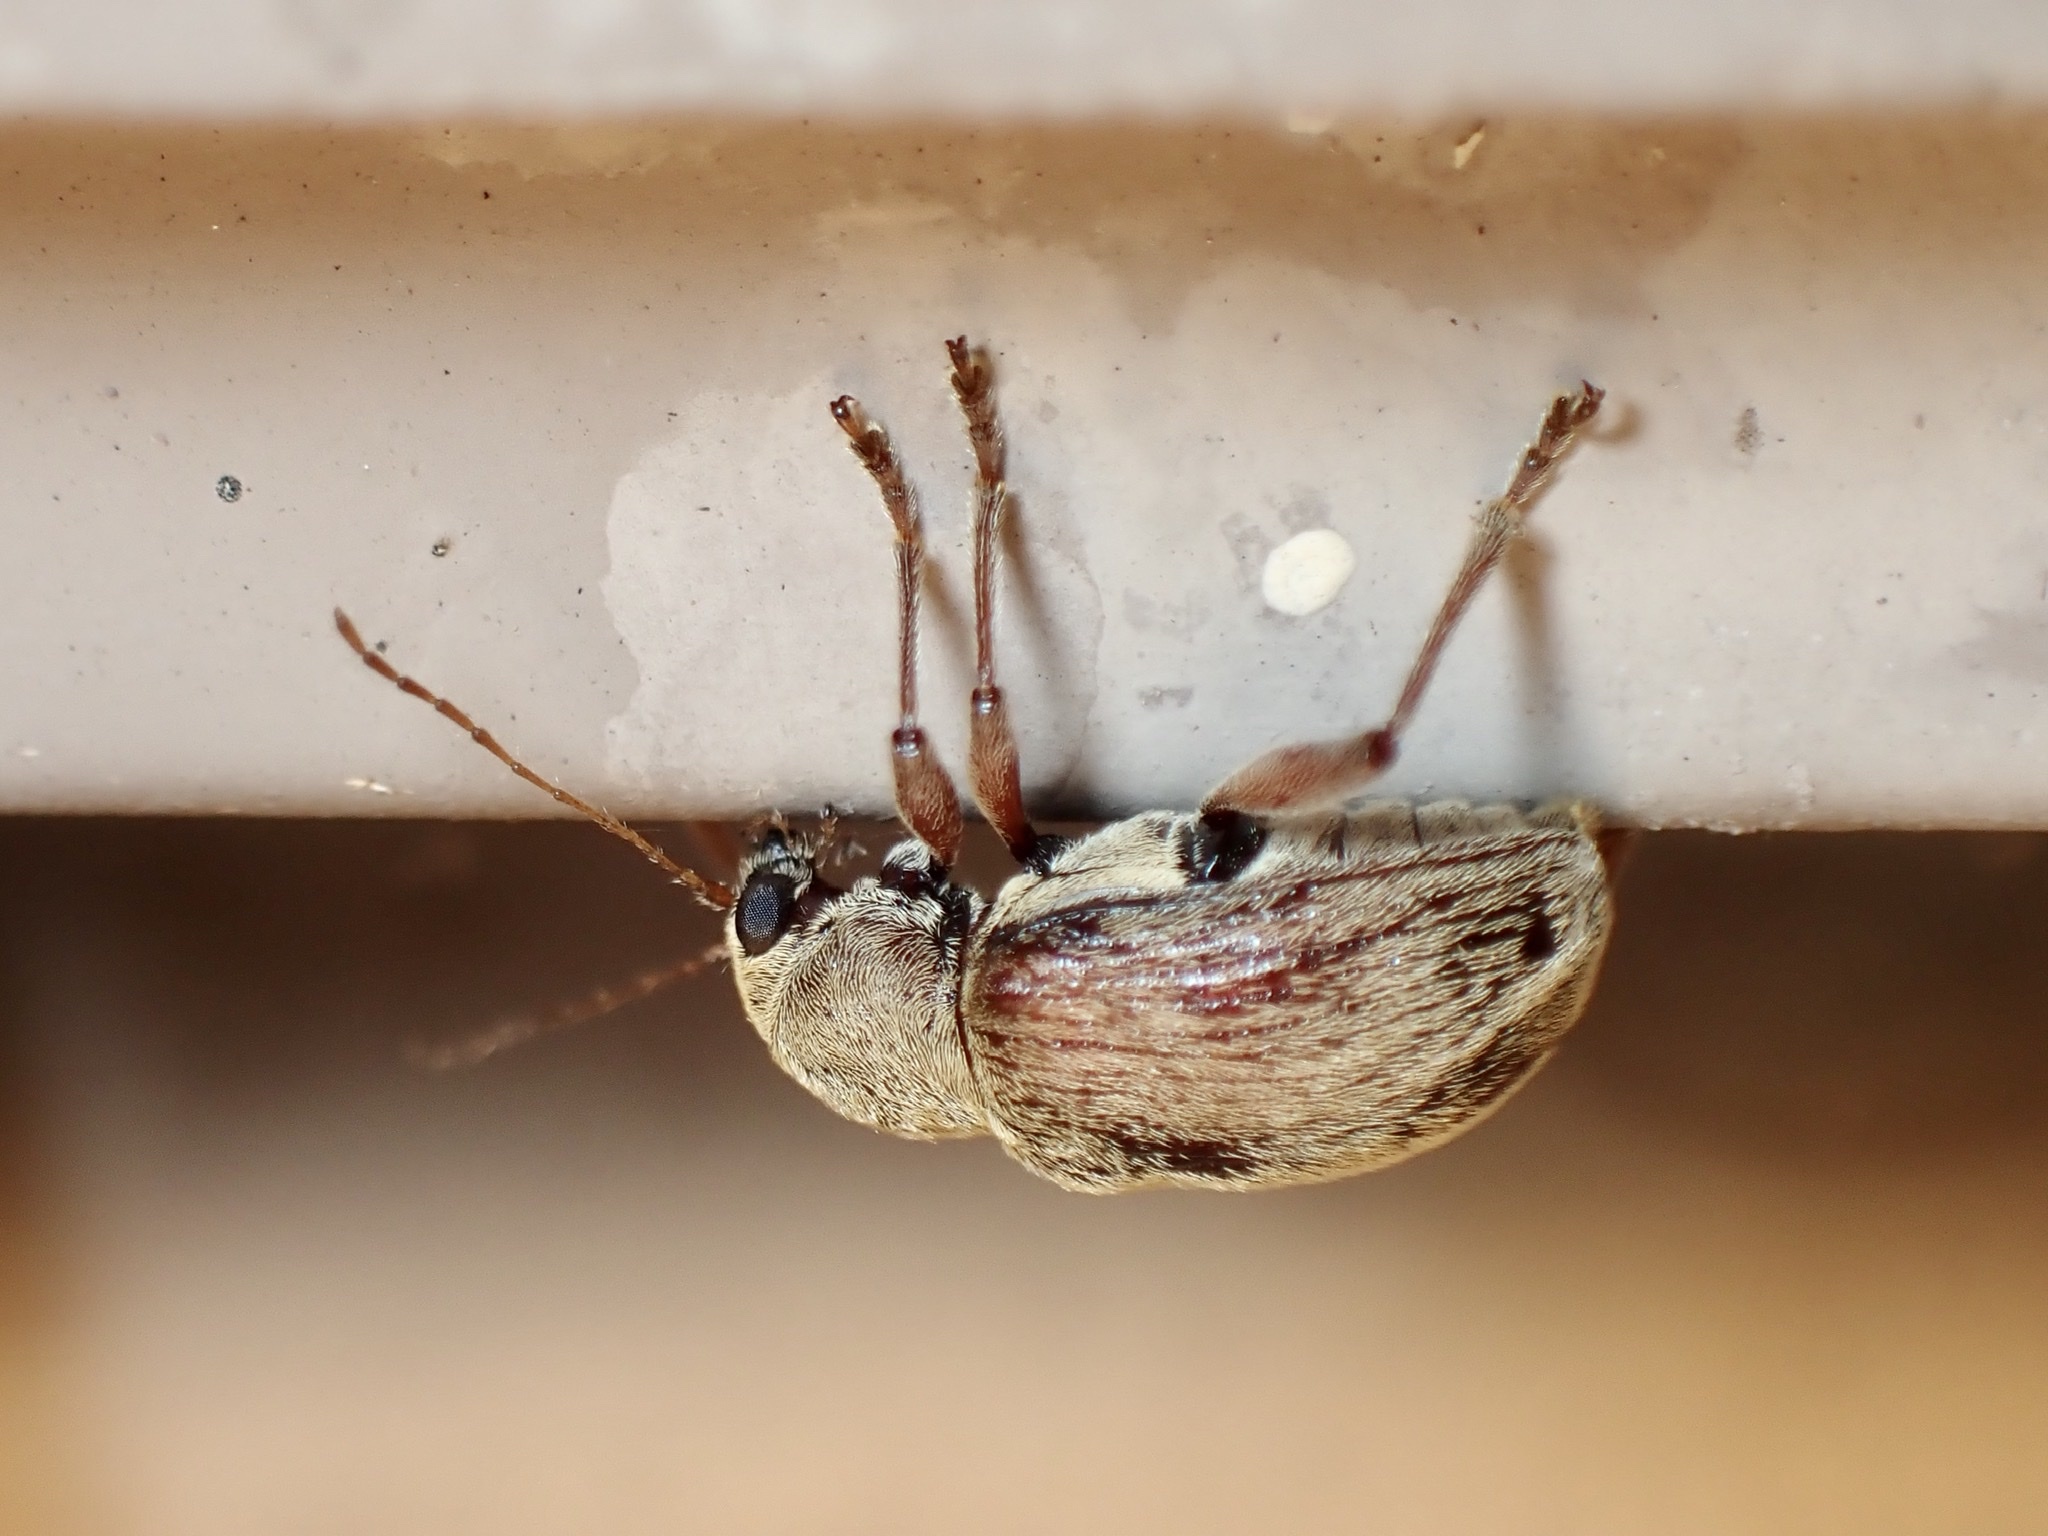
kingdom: Animalia
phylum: Arthropoda
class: Insecta
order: Coleoptera
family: Chrysomelidae
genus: Neofidia
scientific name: Neofidia
